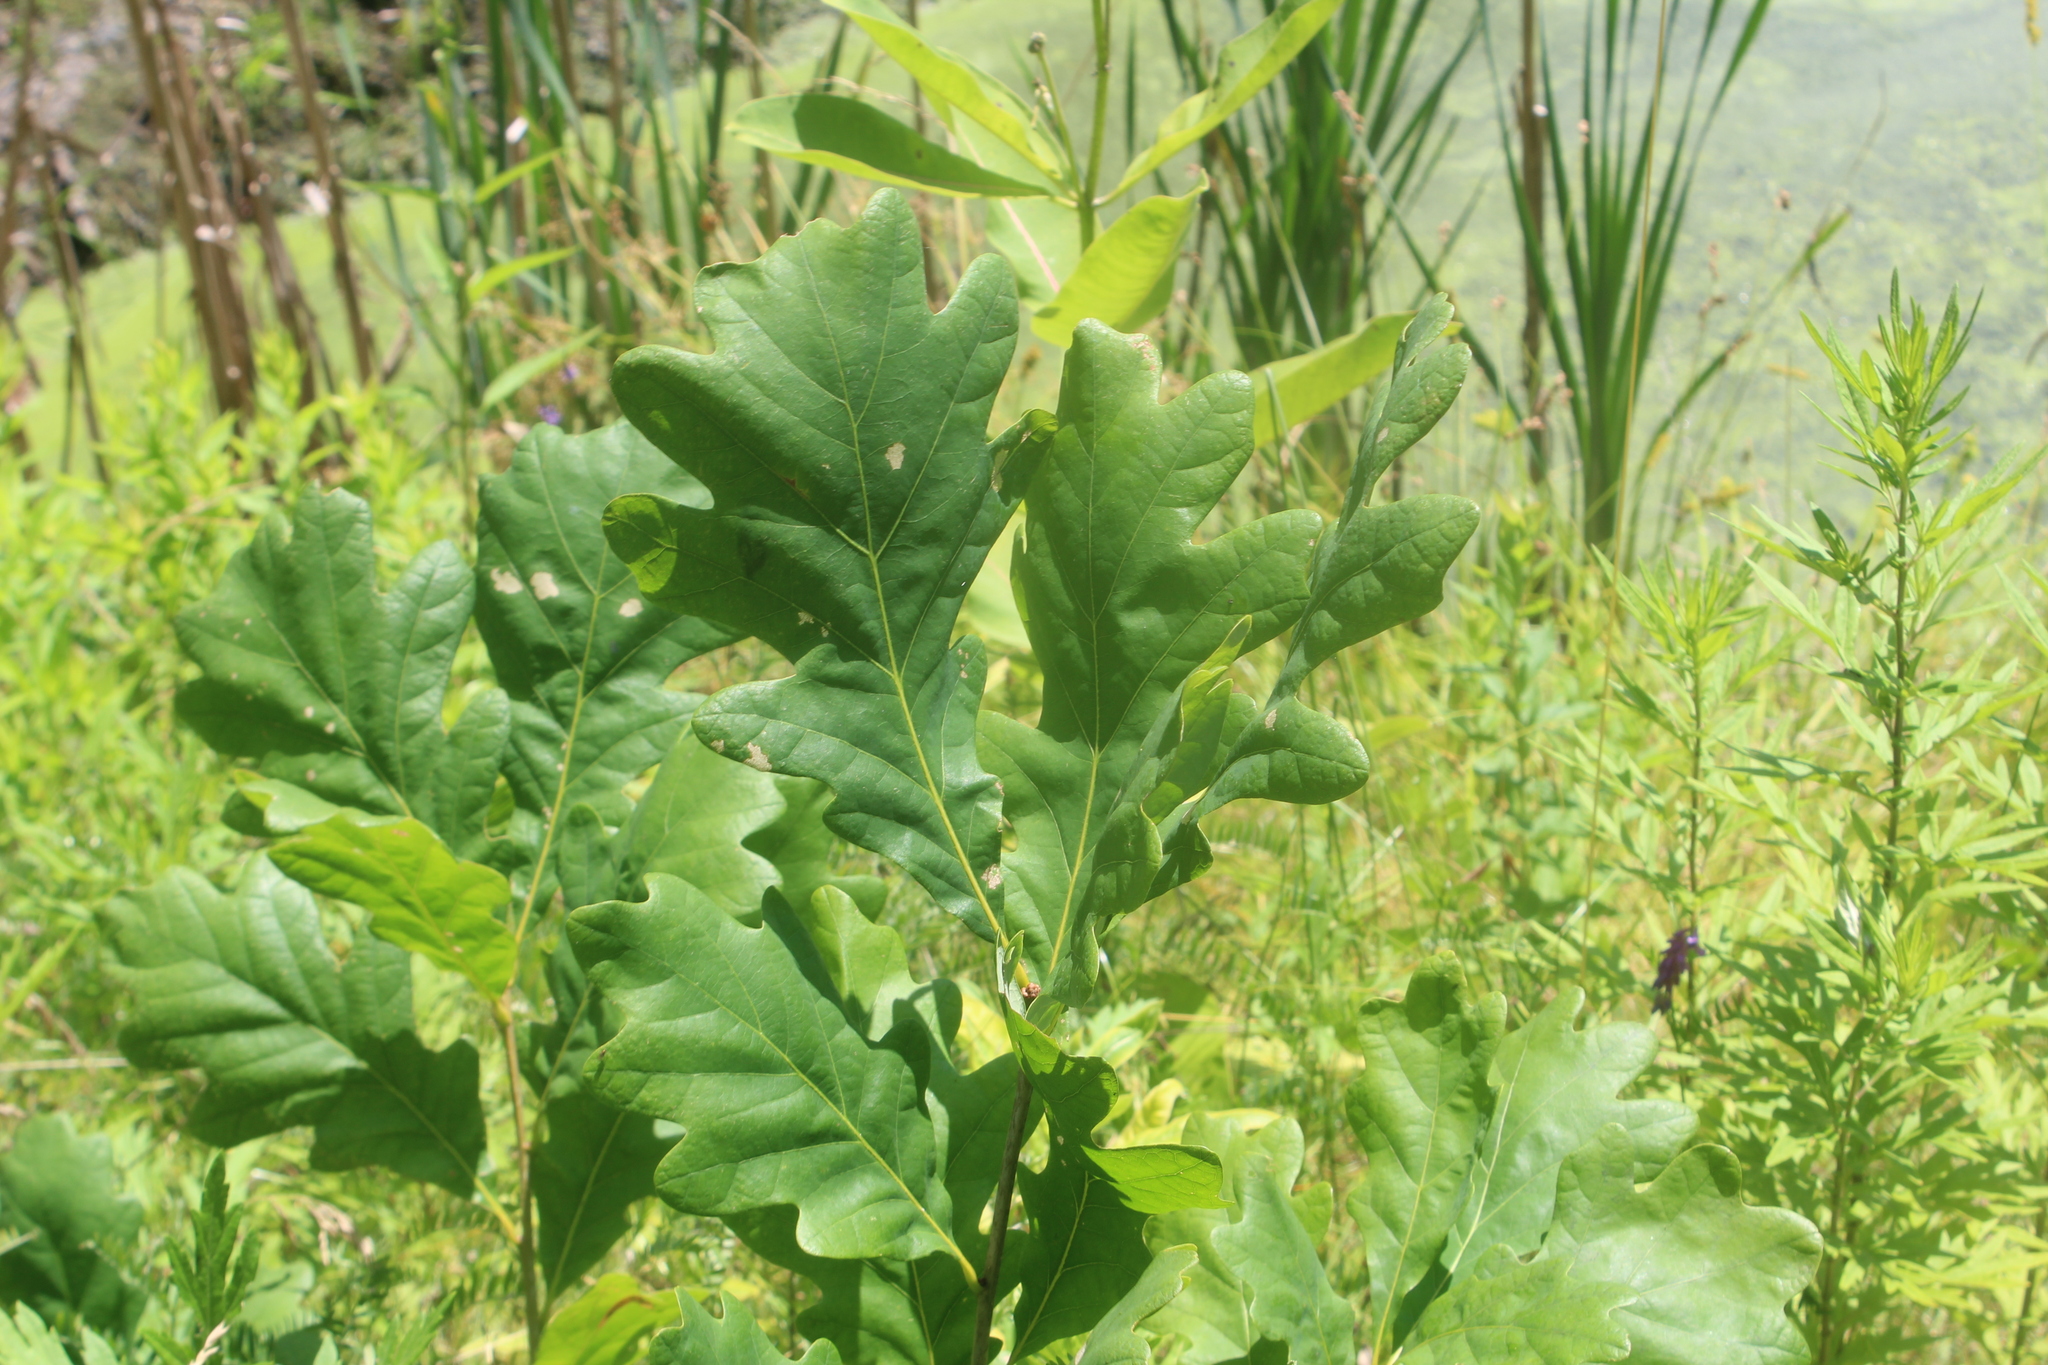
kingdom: Plantae
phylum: Tracheophyta
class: Magnoliopsida
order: Fagales
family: Fagaceae
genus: Quercus
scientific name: Quercus alba
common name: White oak
